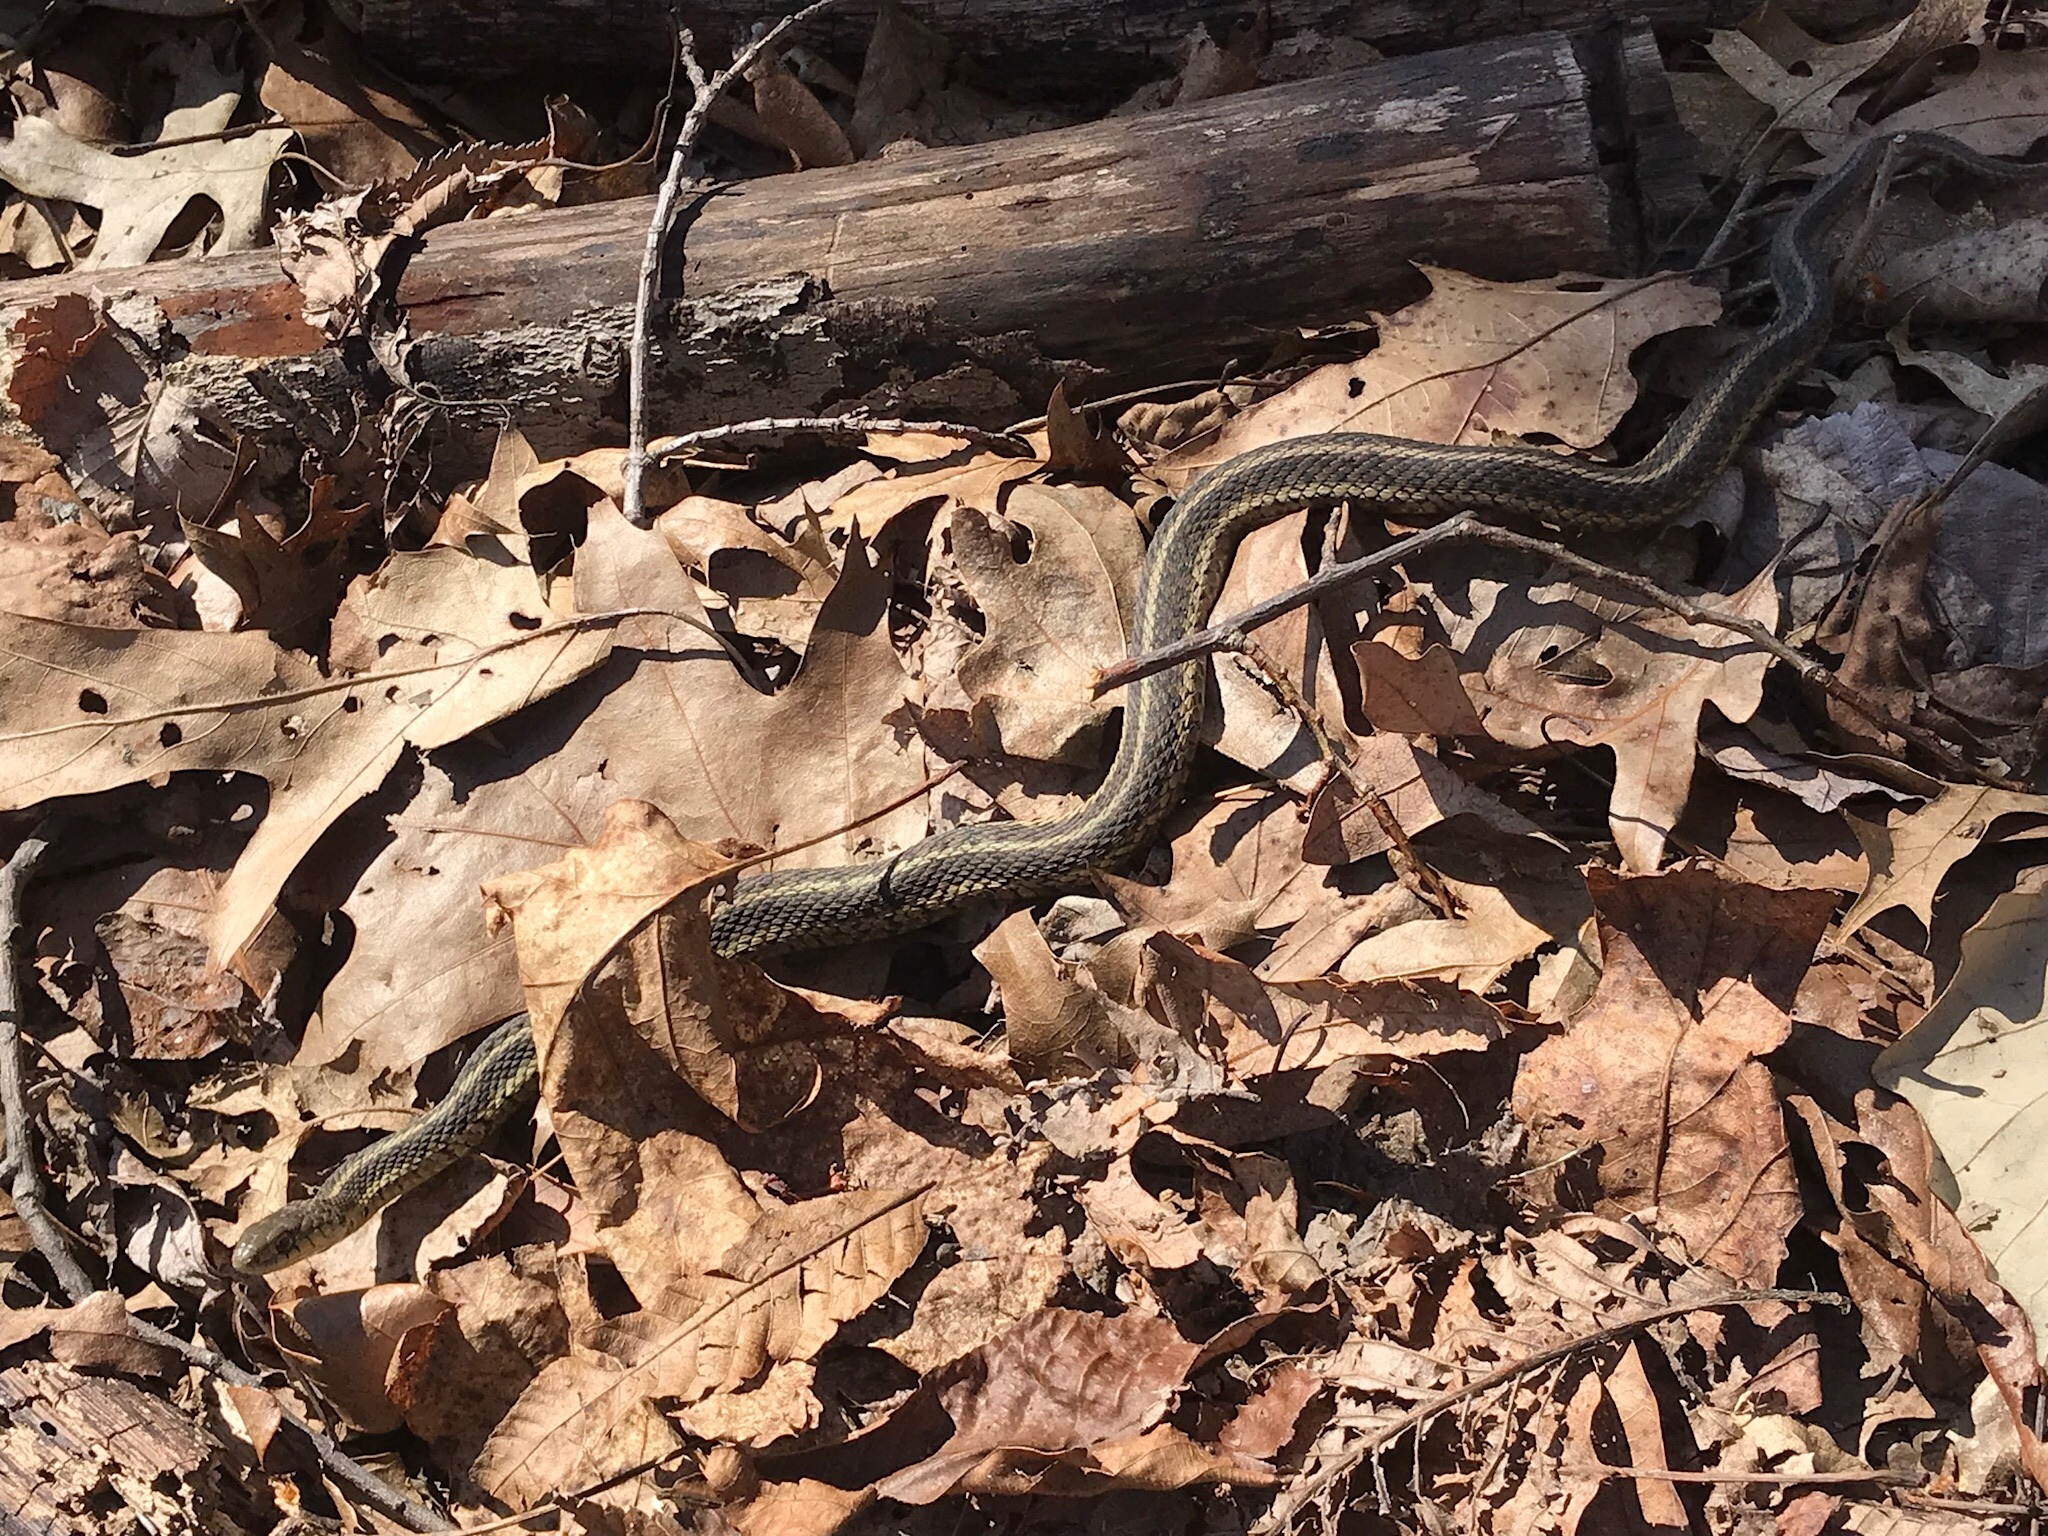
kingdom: Animalia
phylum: Chordata
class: Squamata
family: Colubridae
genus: Thamnophis
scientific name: Thamnophis sirtalis
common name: Common garter snake
